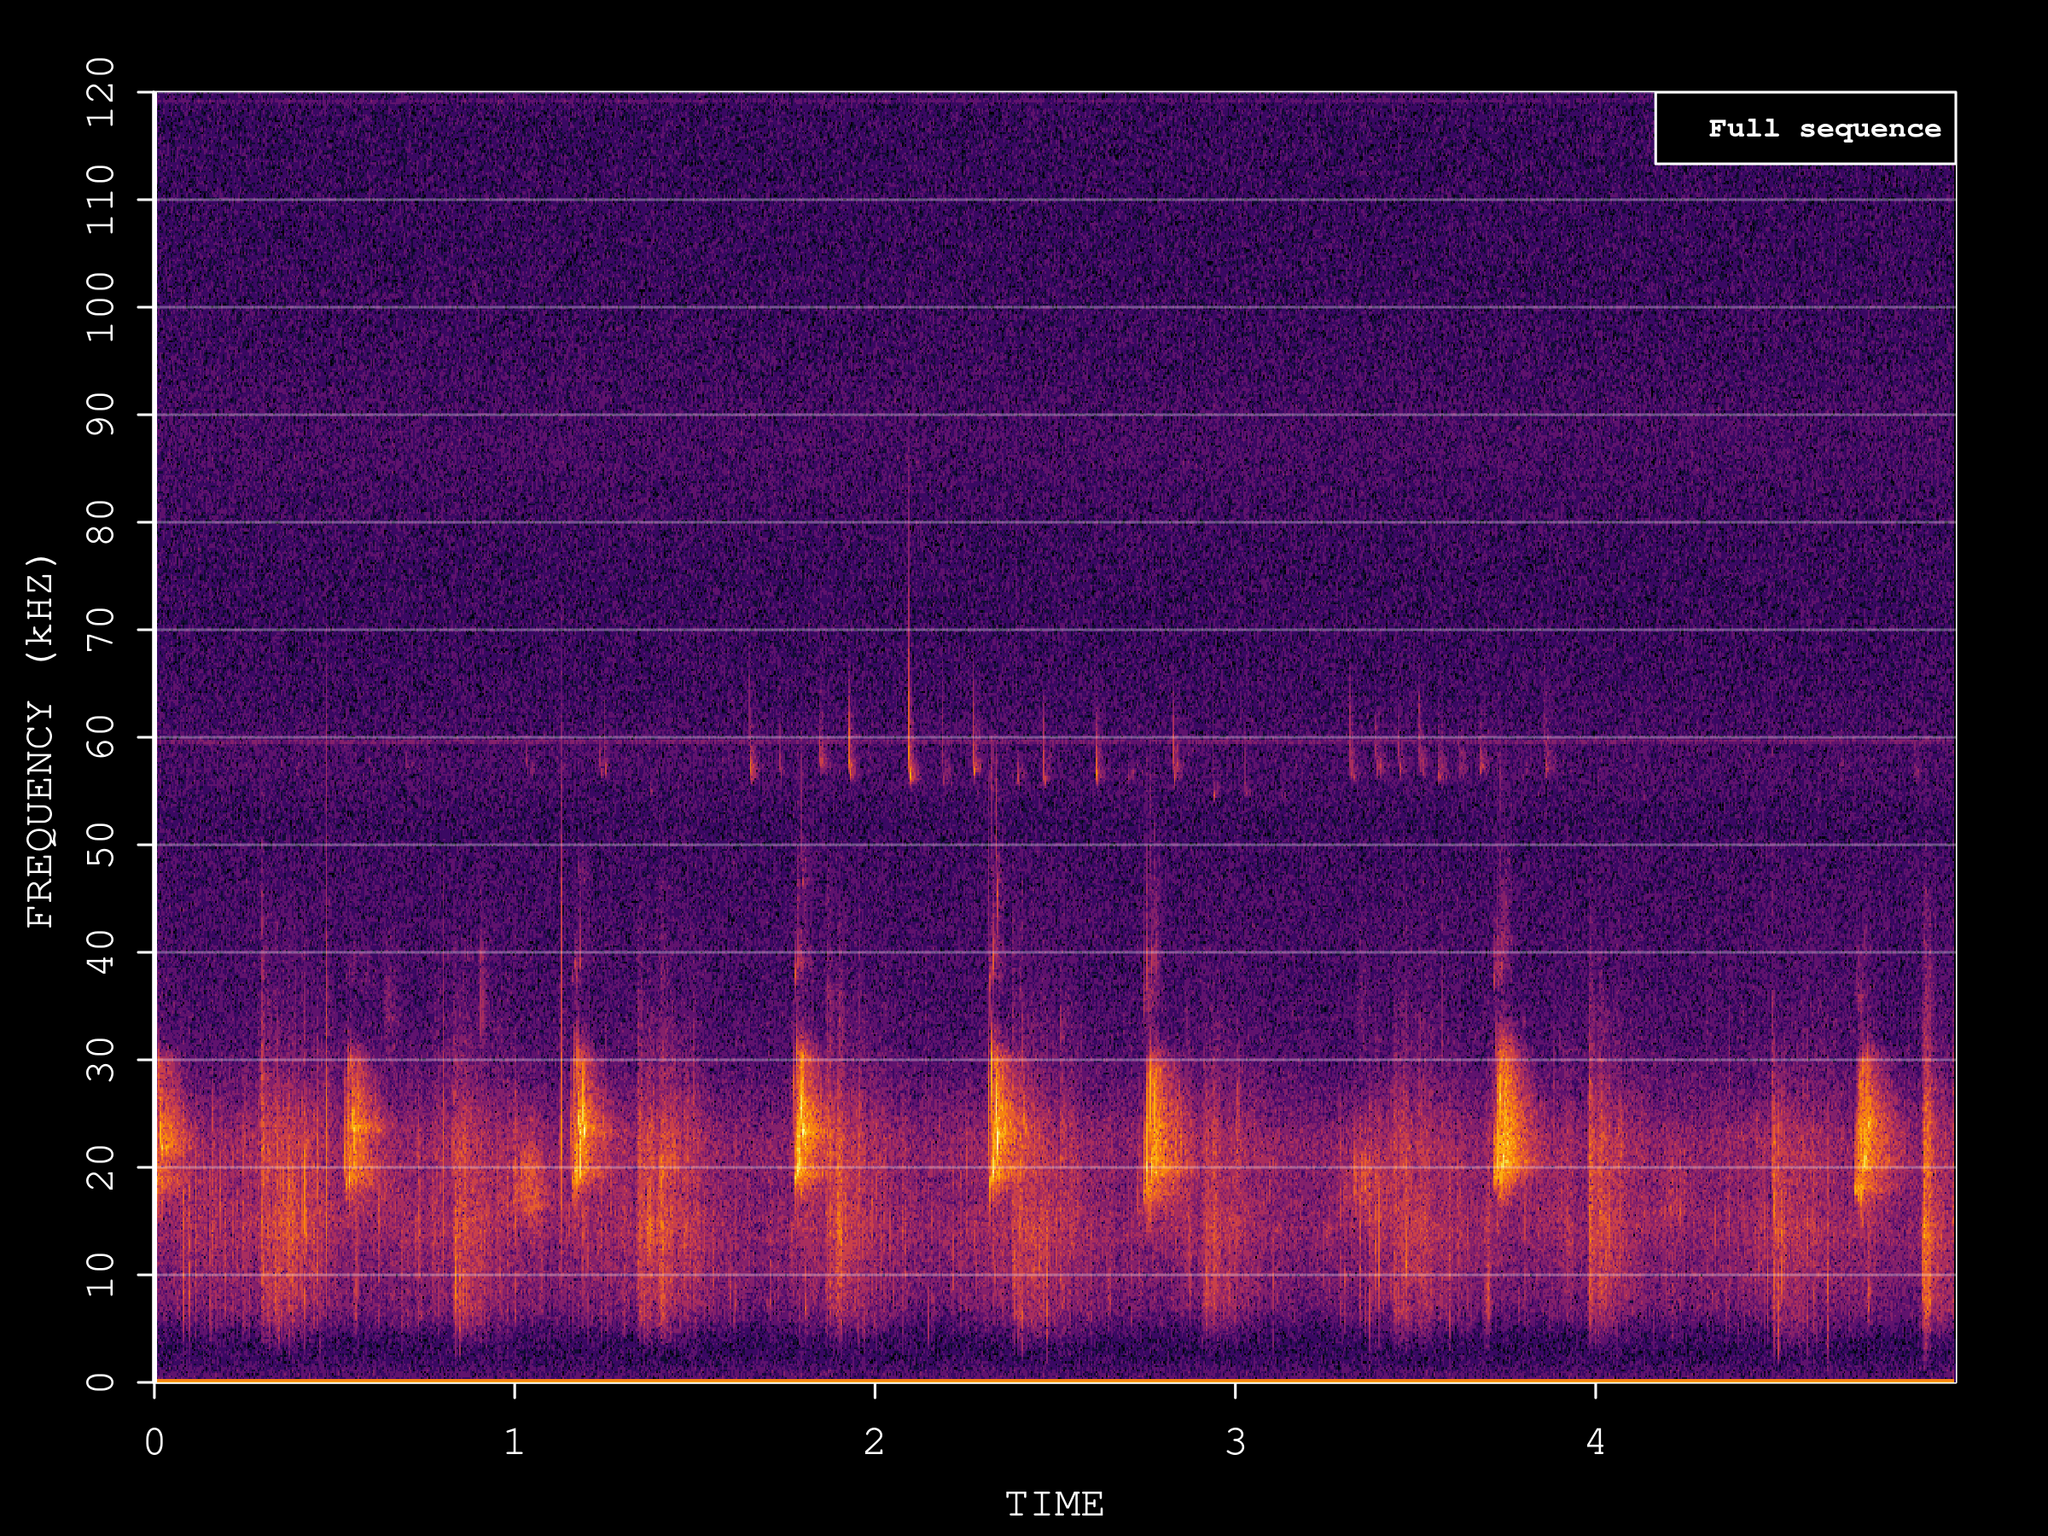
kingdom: Animalia
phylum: Chordata
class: Mammalia
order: Chiroptera
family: Vespertilionidae
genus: Pipistrellus
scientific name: Pipistrellus pygmaeus
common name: Soprano pipistrelle
